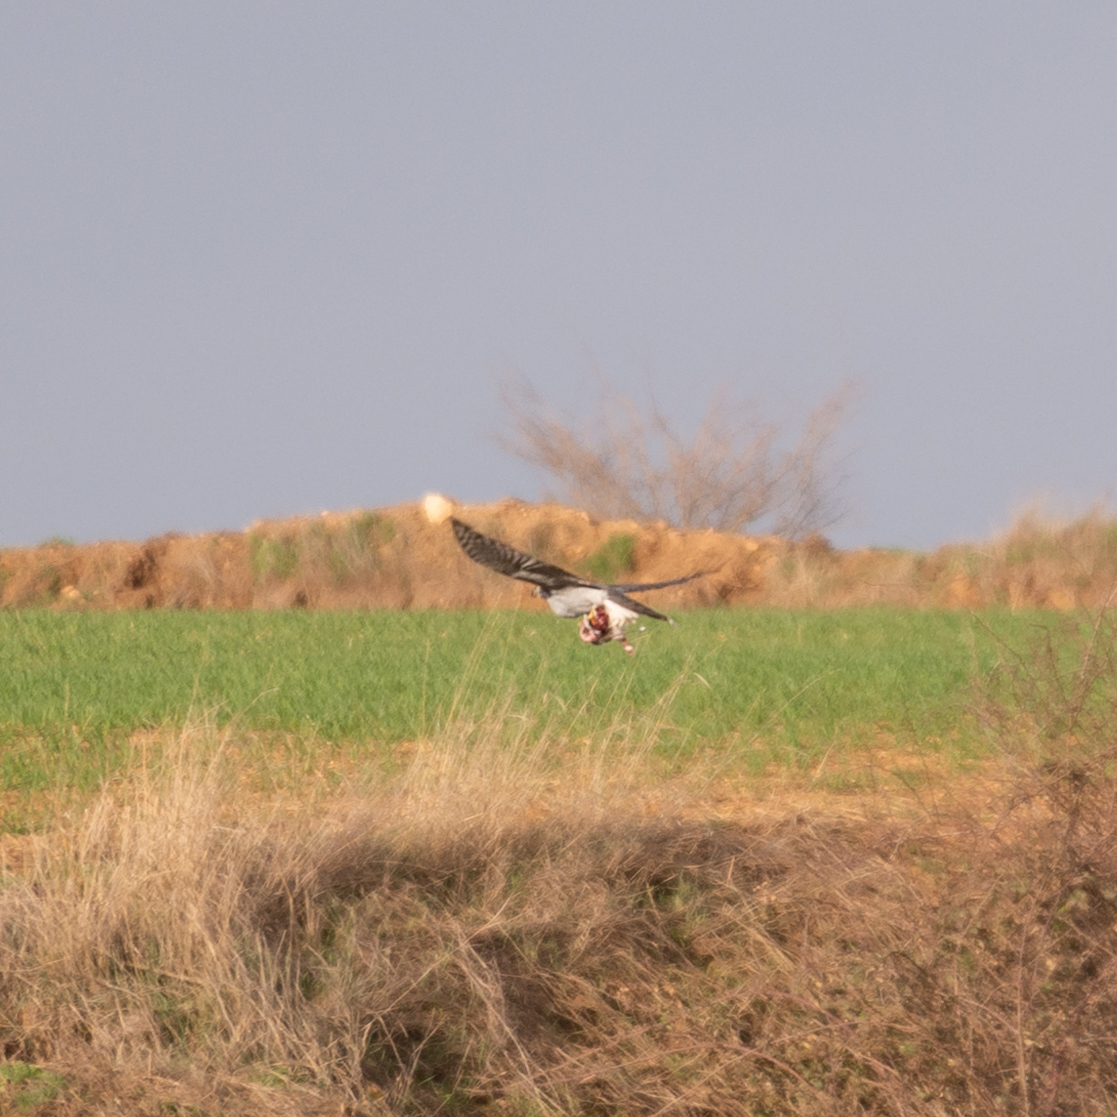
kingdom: Animalia
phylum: Chordata
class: Aves
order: Accipitriformes
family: Accipitridae
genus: Accipiter
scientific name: Accipiter gentilis
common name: Northern goshawk
